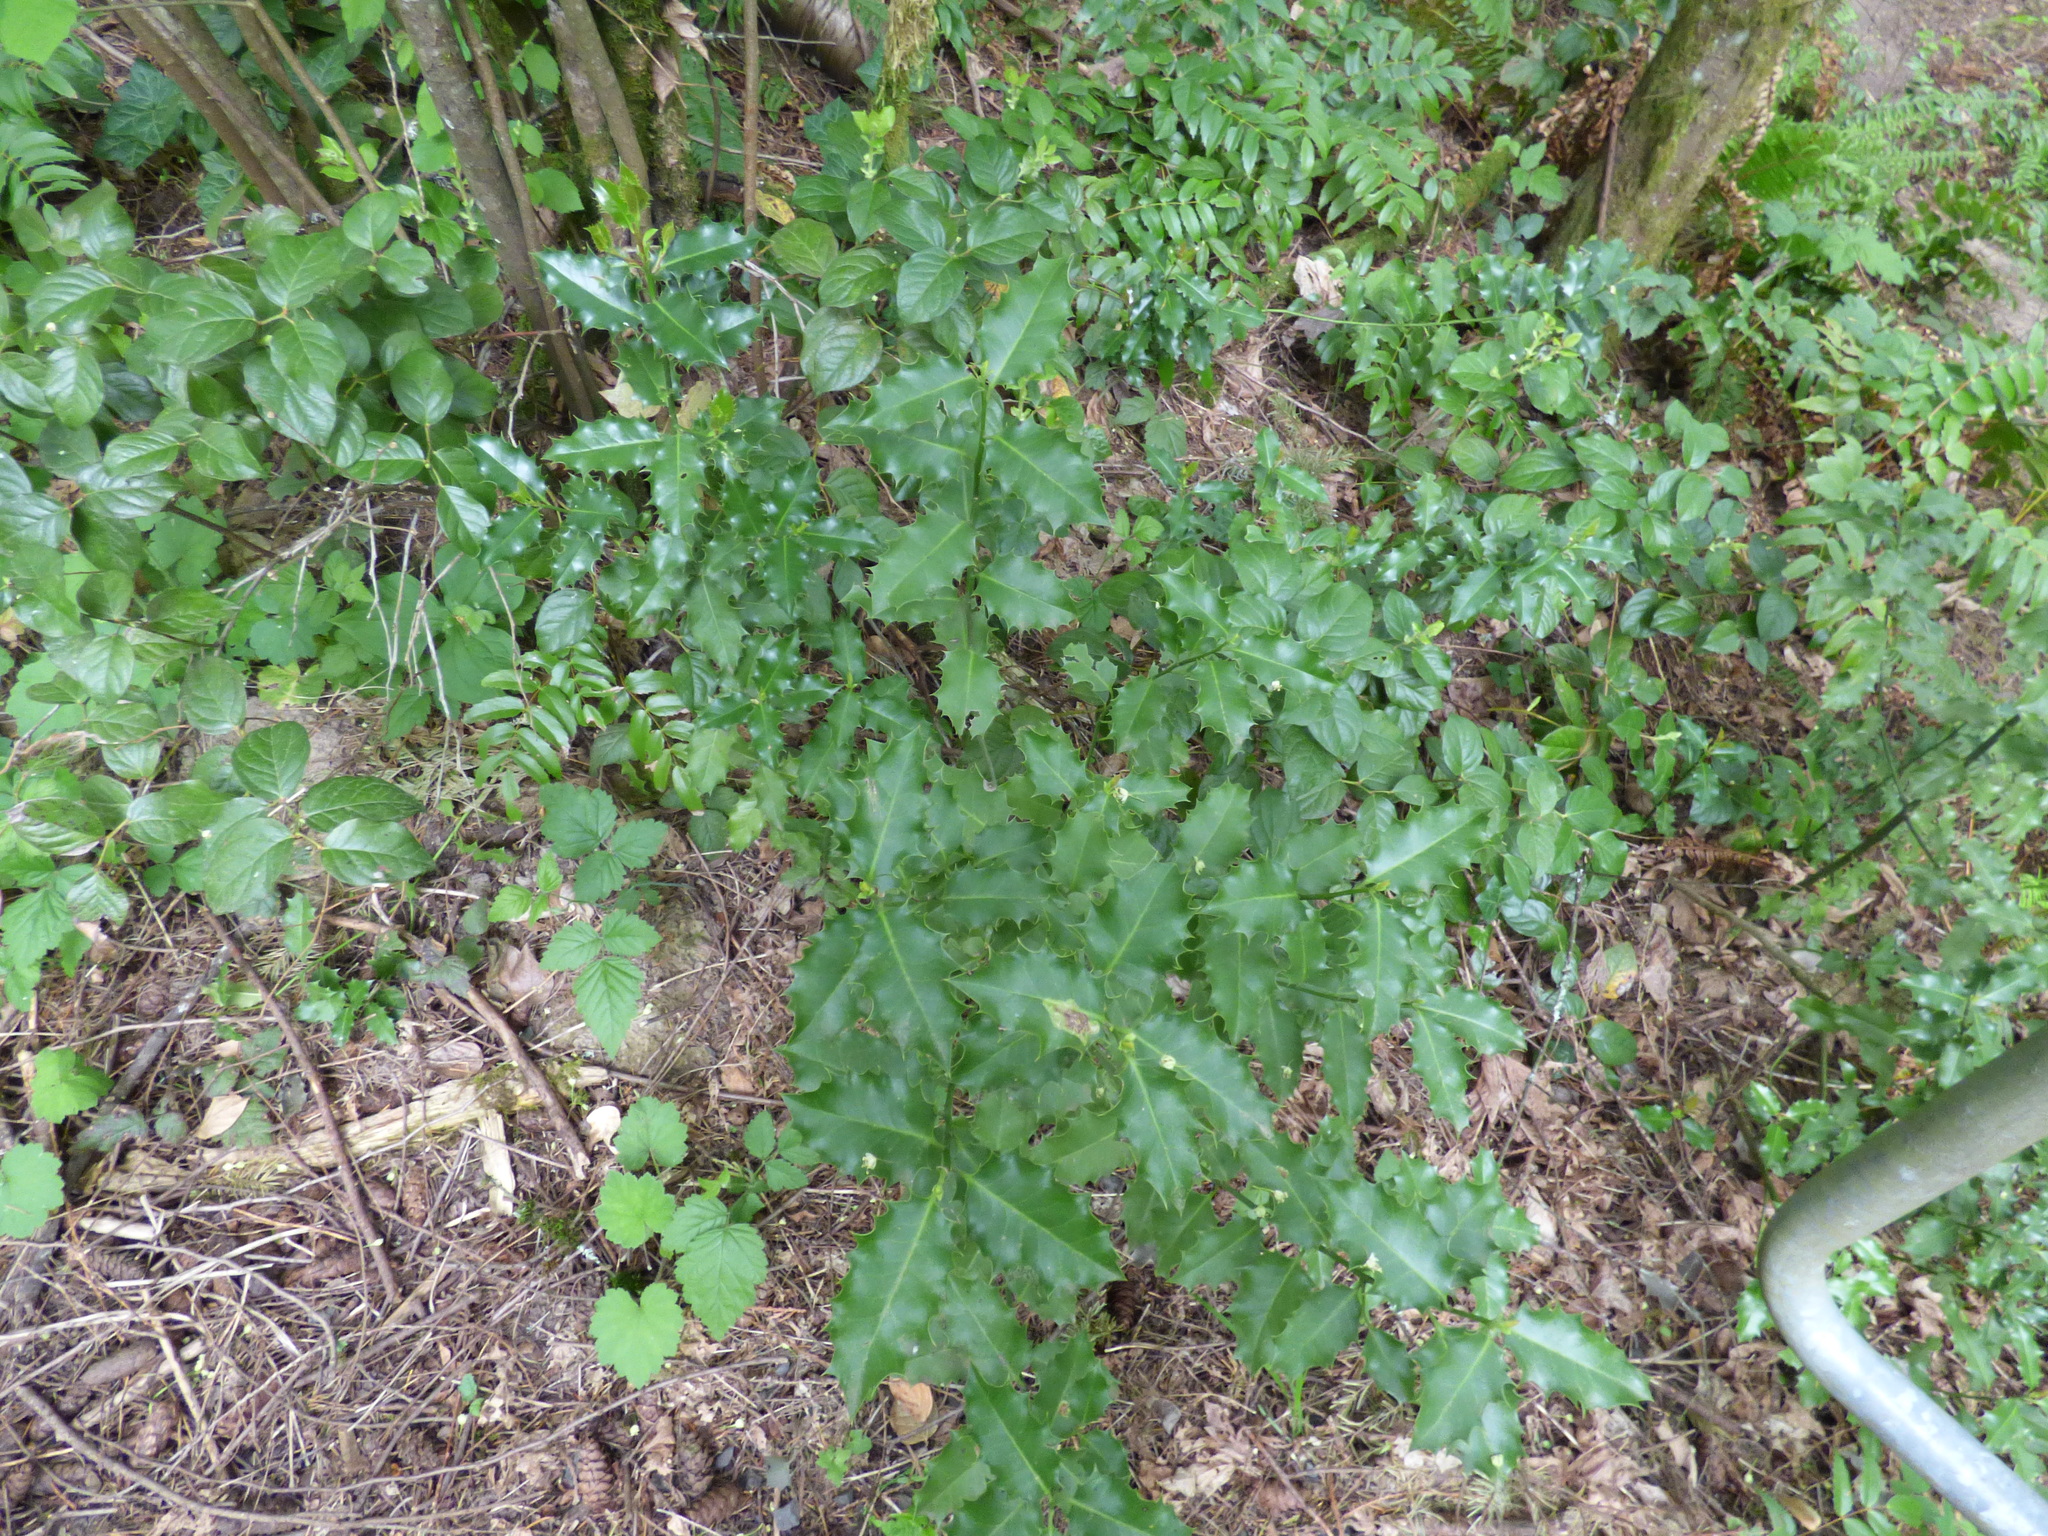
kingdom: Plantae
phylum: Tracheophyta
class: Magnoliopsida
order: Aquifoliales
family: Aquifoliaceae
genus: Ilex
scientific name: Ilex aquifolium
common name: English holly
